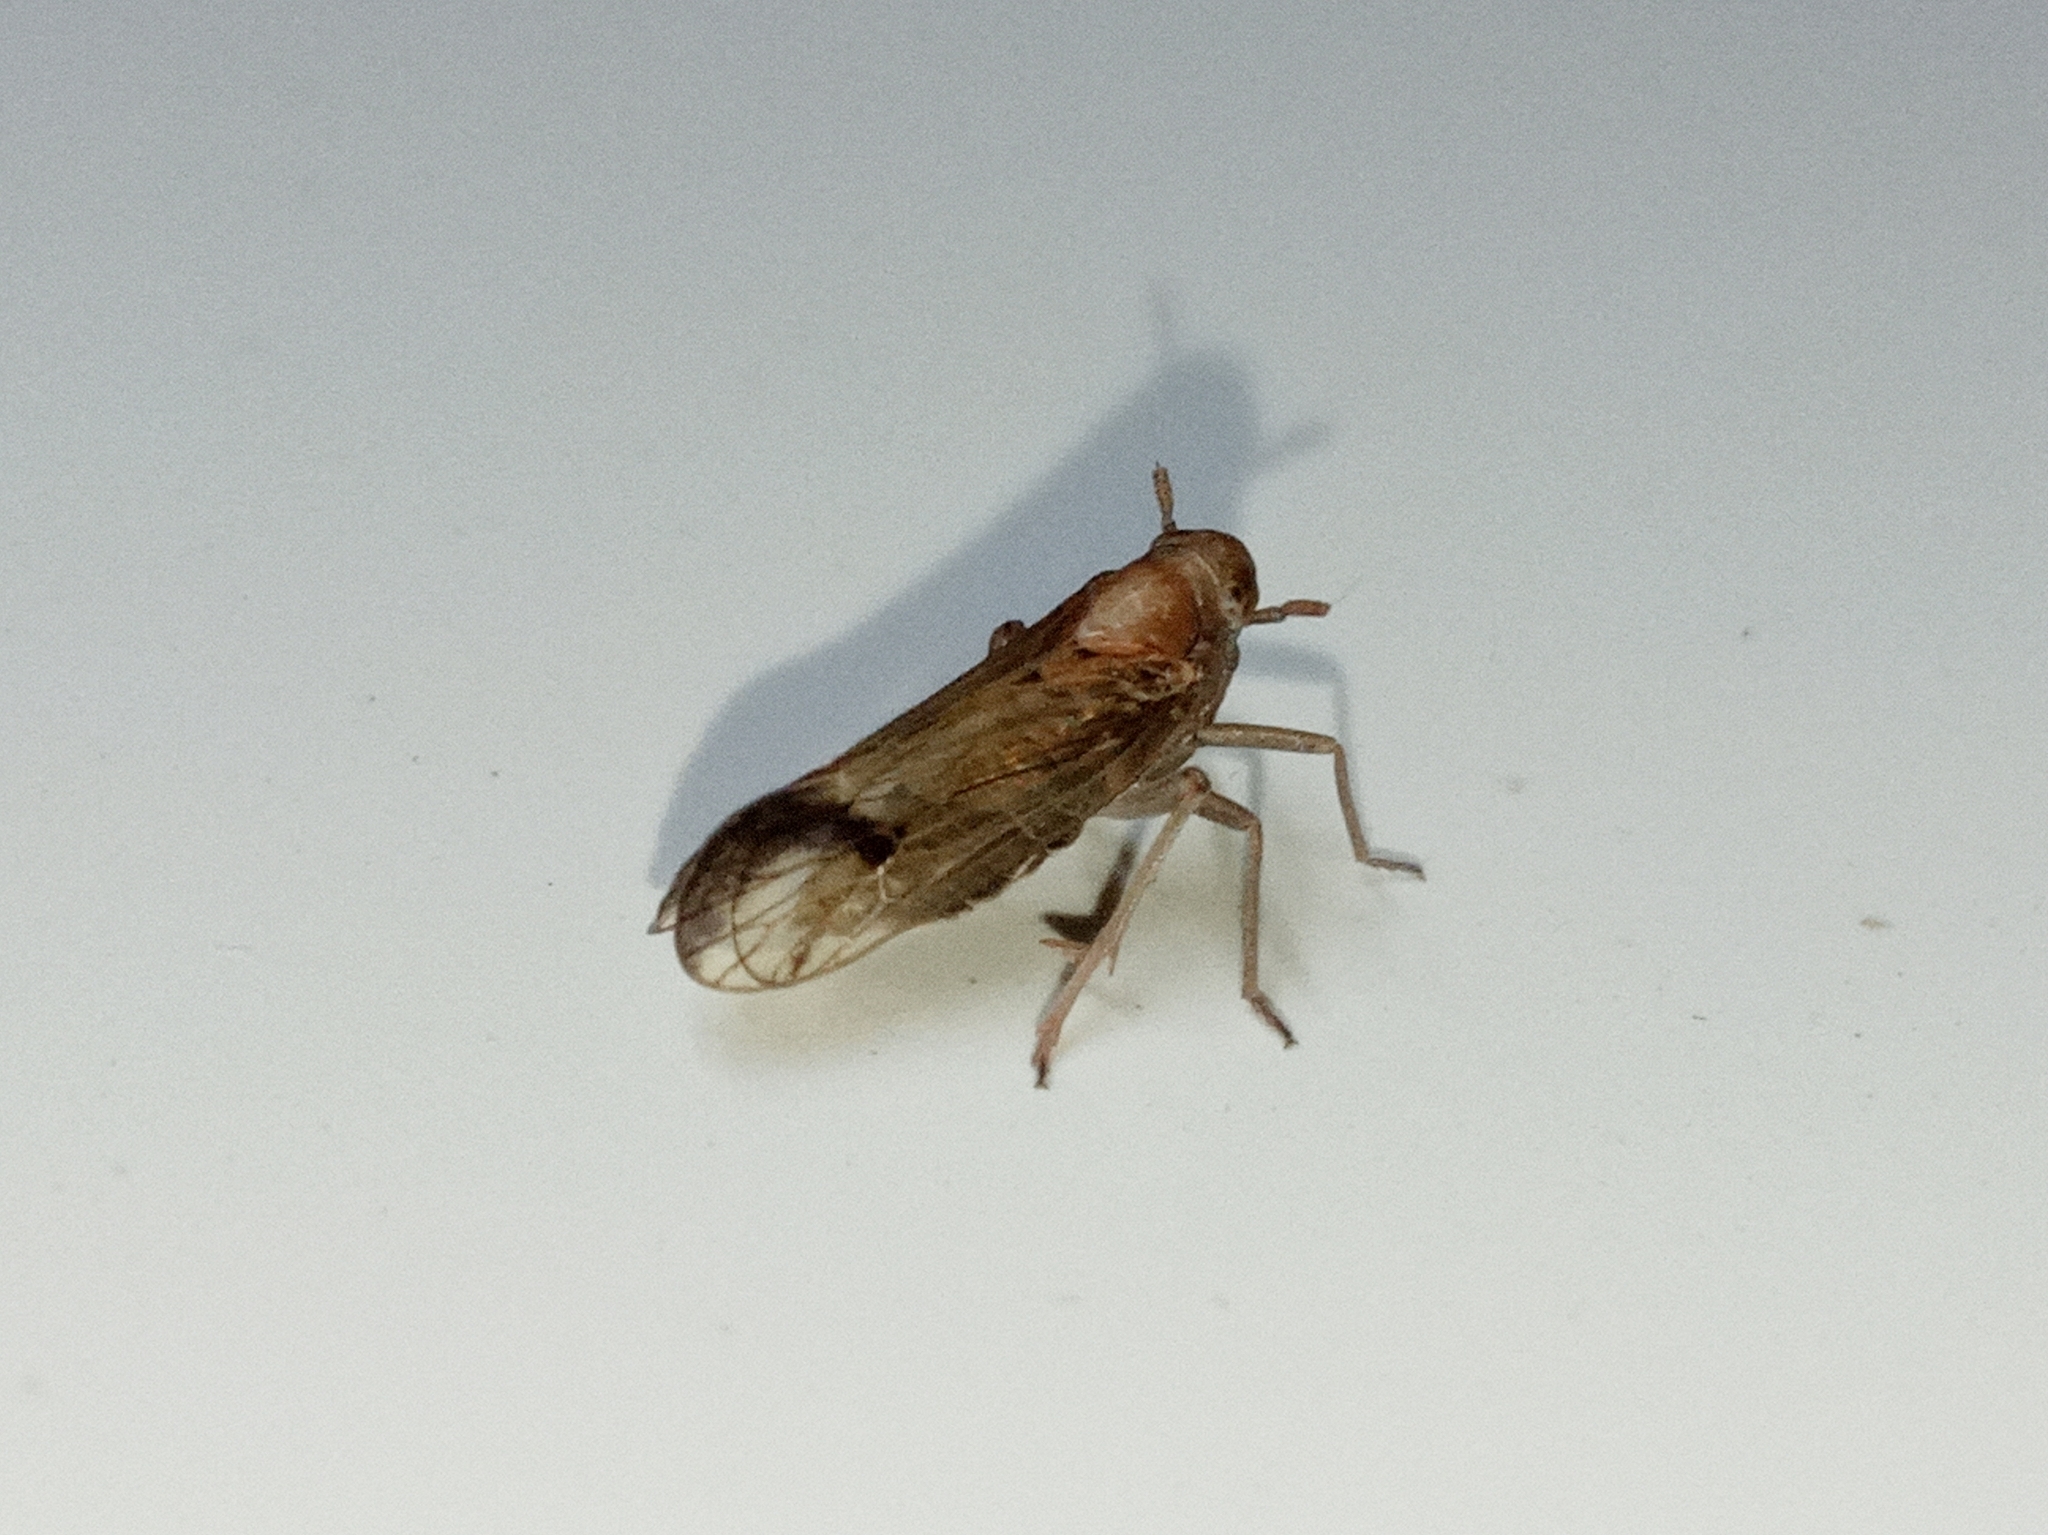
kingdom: Animalia
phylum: Arthropoda
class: Insecta
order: Hemiptera
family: Delphacidae
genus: Euides
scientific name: Euides
